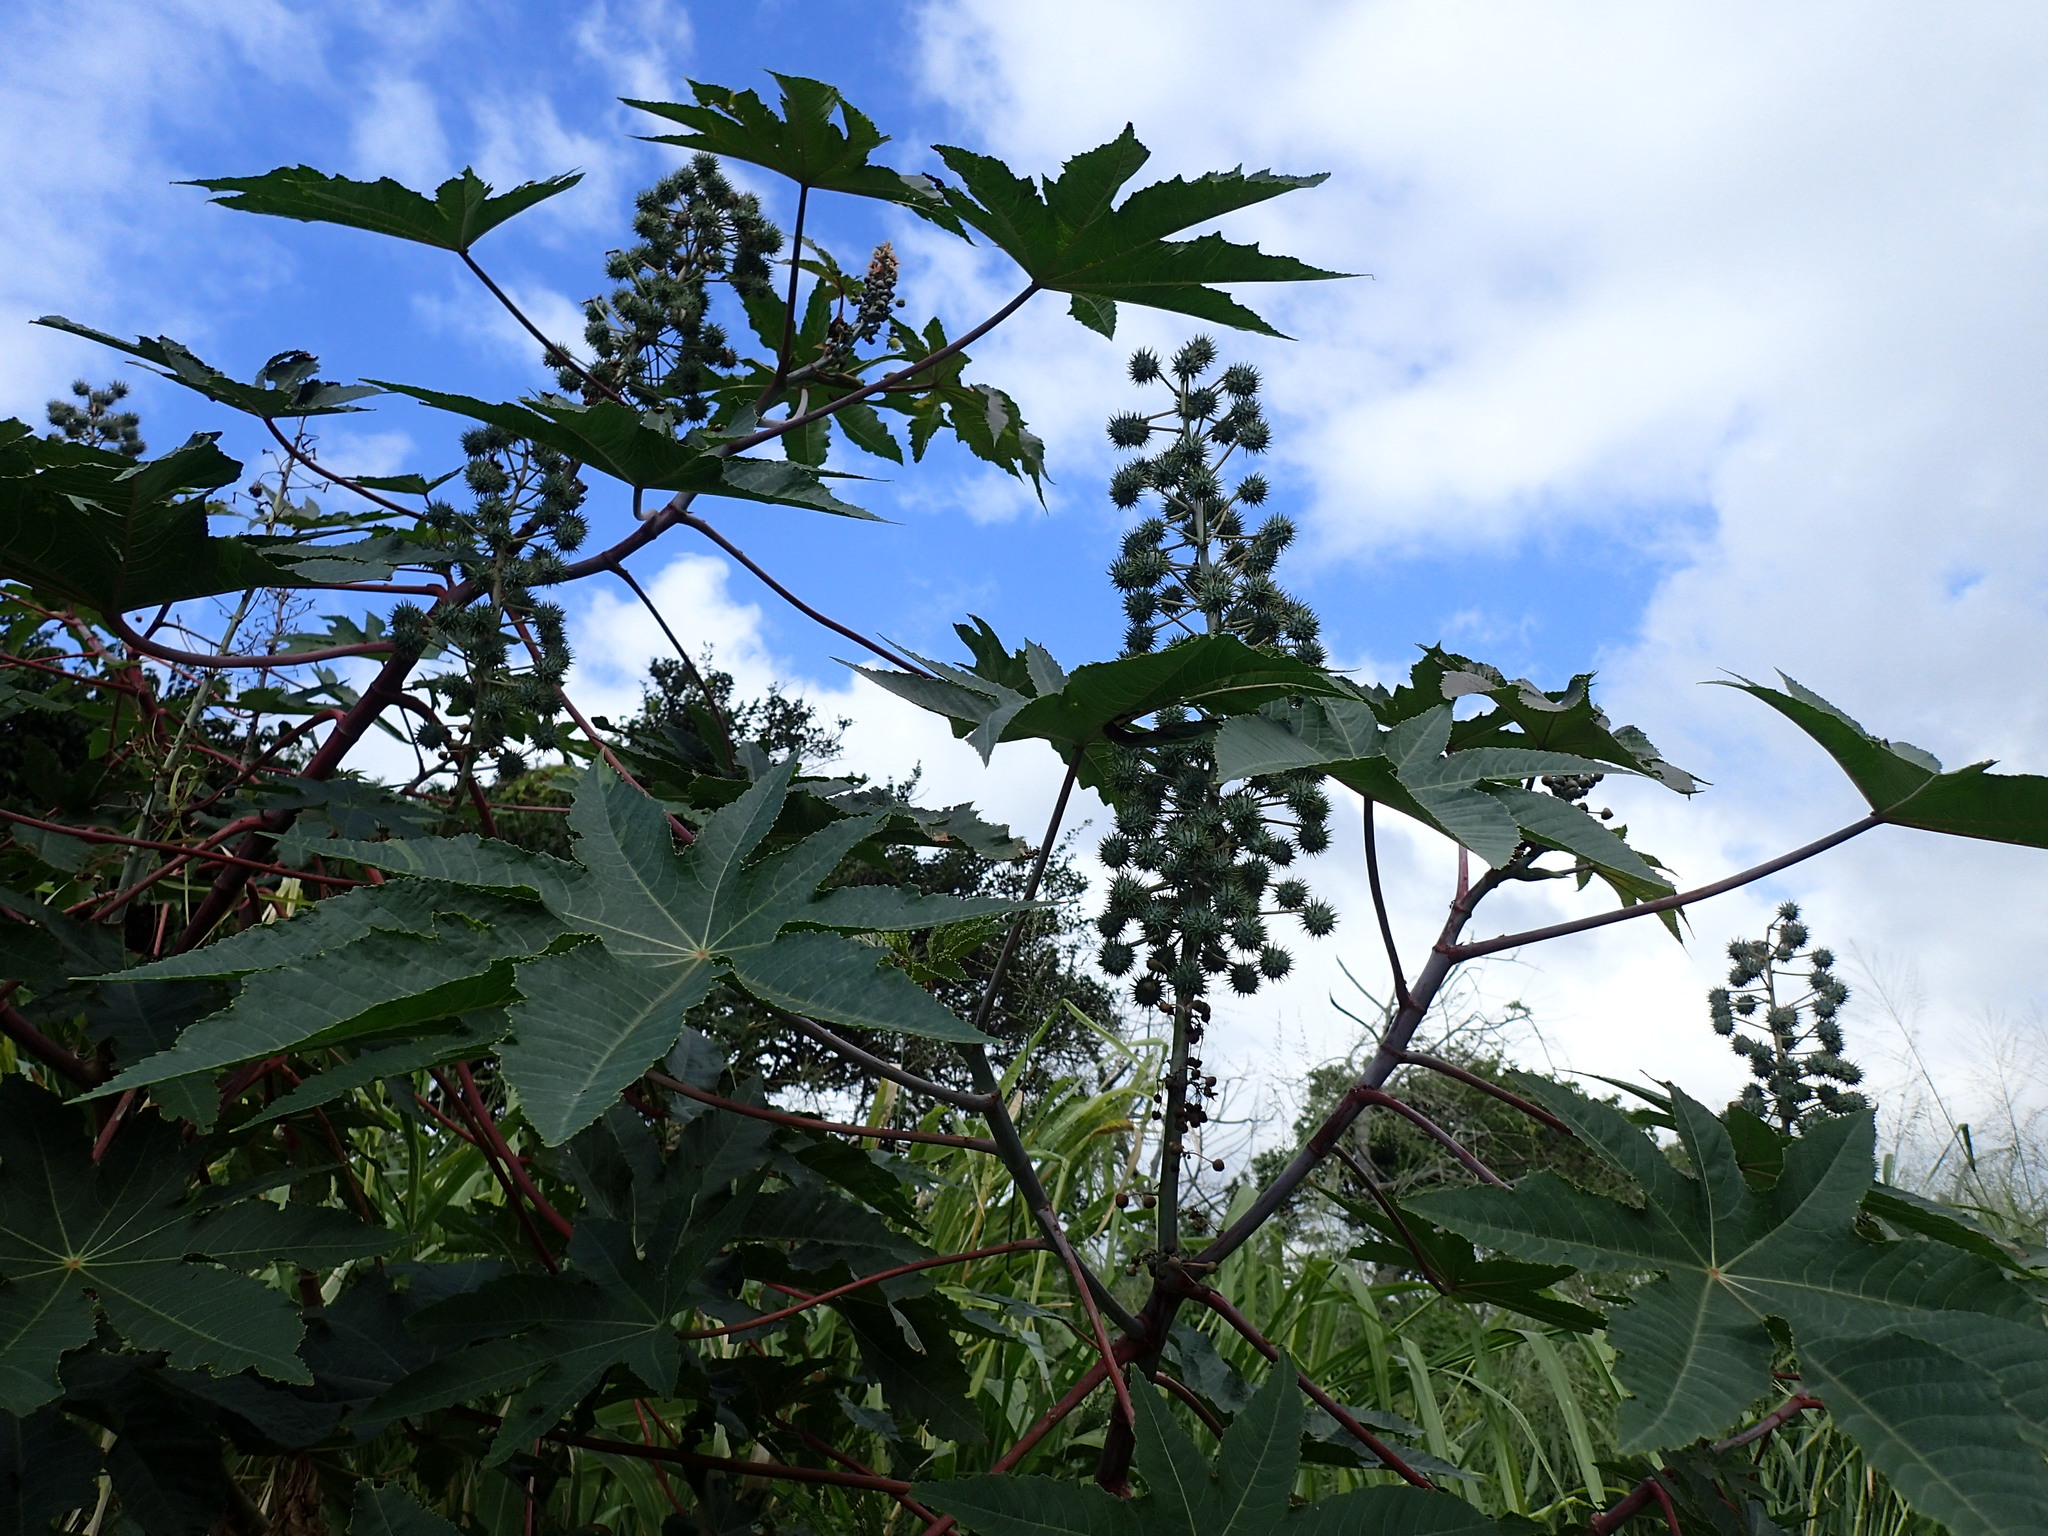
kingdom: Plantae
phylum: Tracheophyta
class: Magnoliopsida
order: Malpighiales
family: Euphorbiaceae
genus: Ricinus
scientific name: Ricinus communis
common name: Castor-oil-plant
